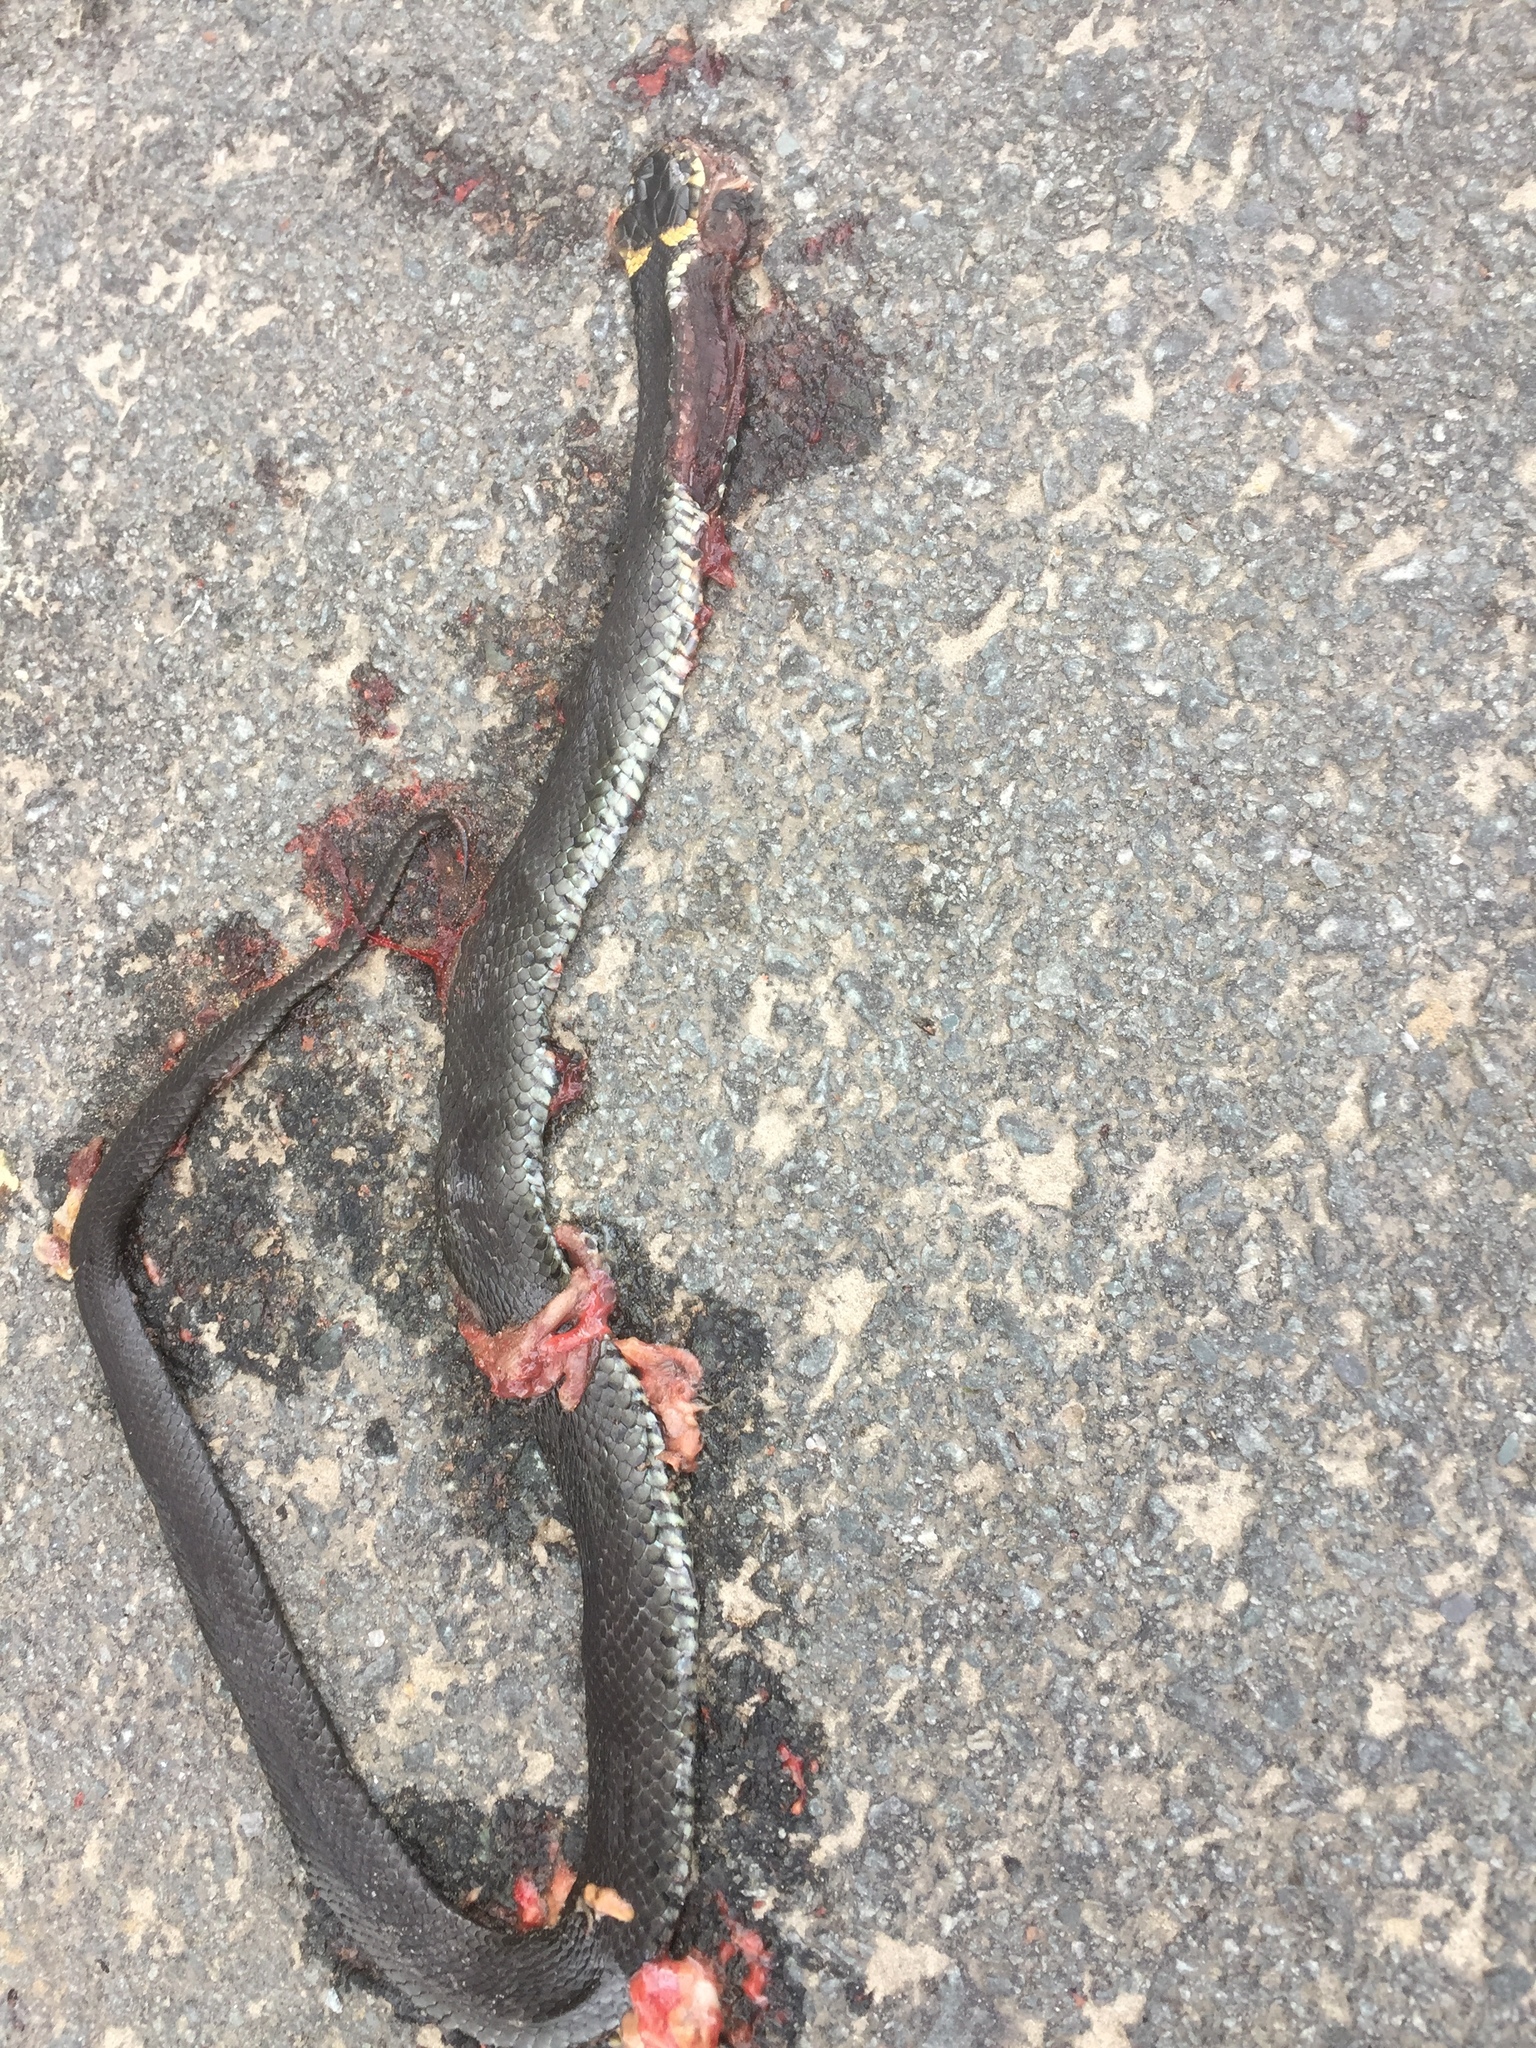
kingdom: Animalia
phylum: Chordata
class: Squamata
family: Colubridae
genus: Natrix
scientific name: Natrix helvetica
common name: Banded grass snake
